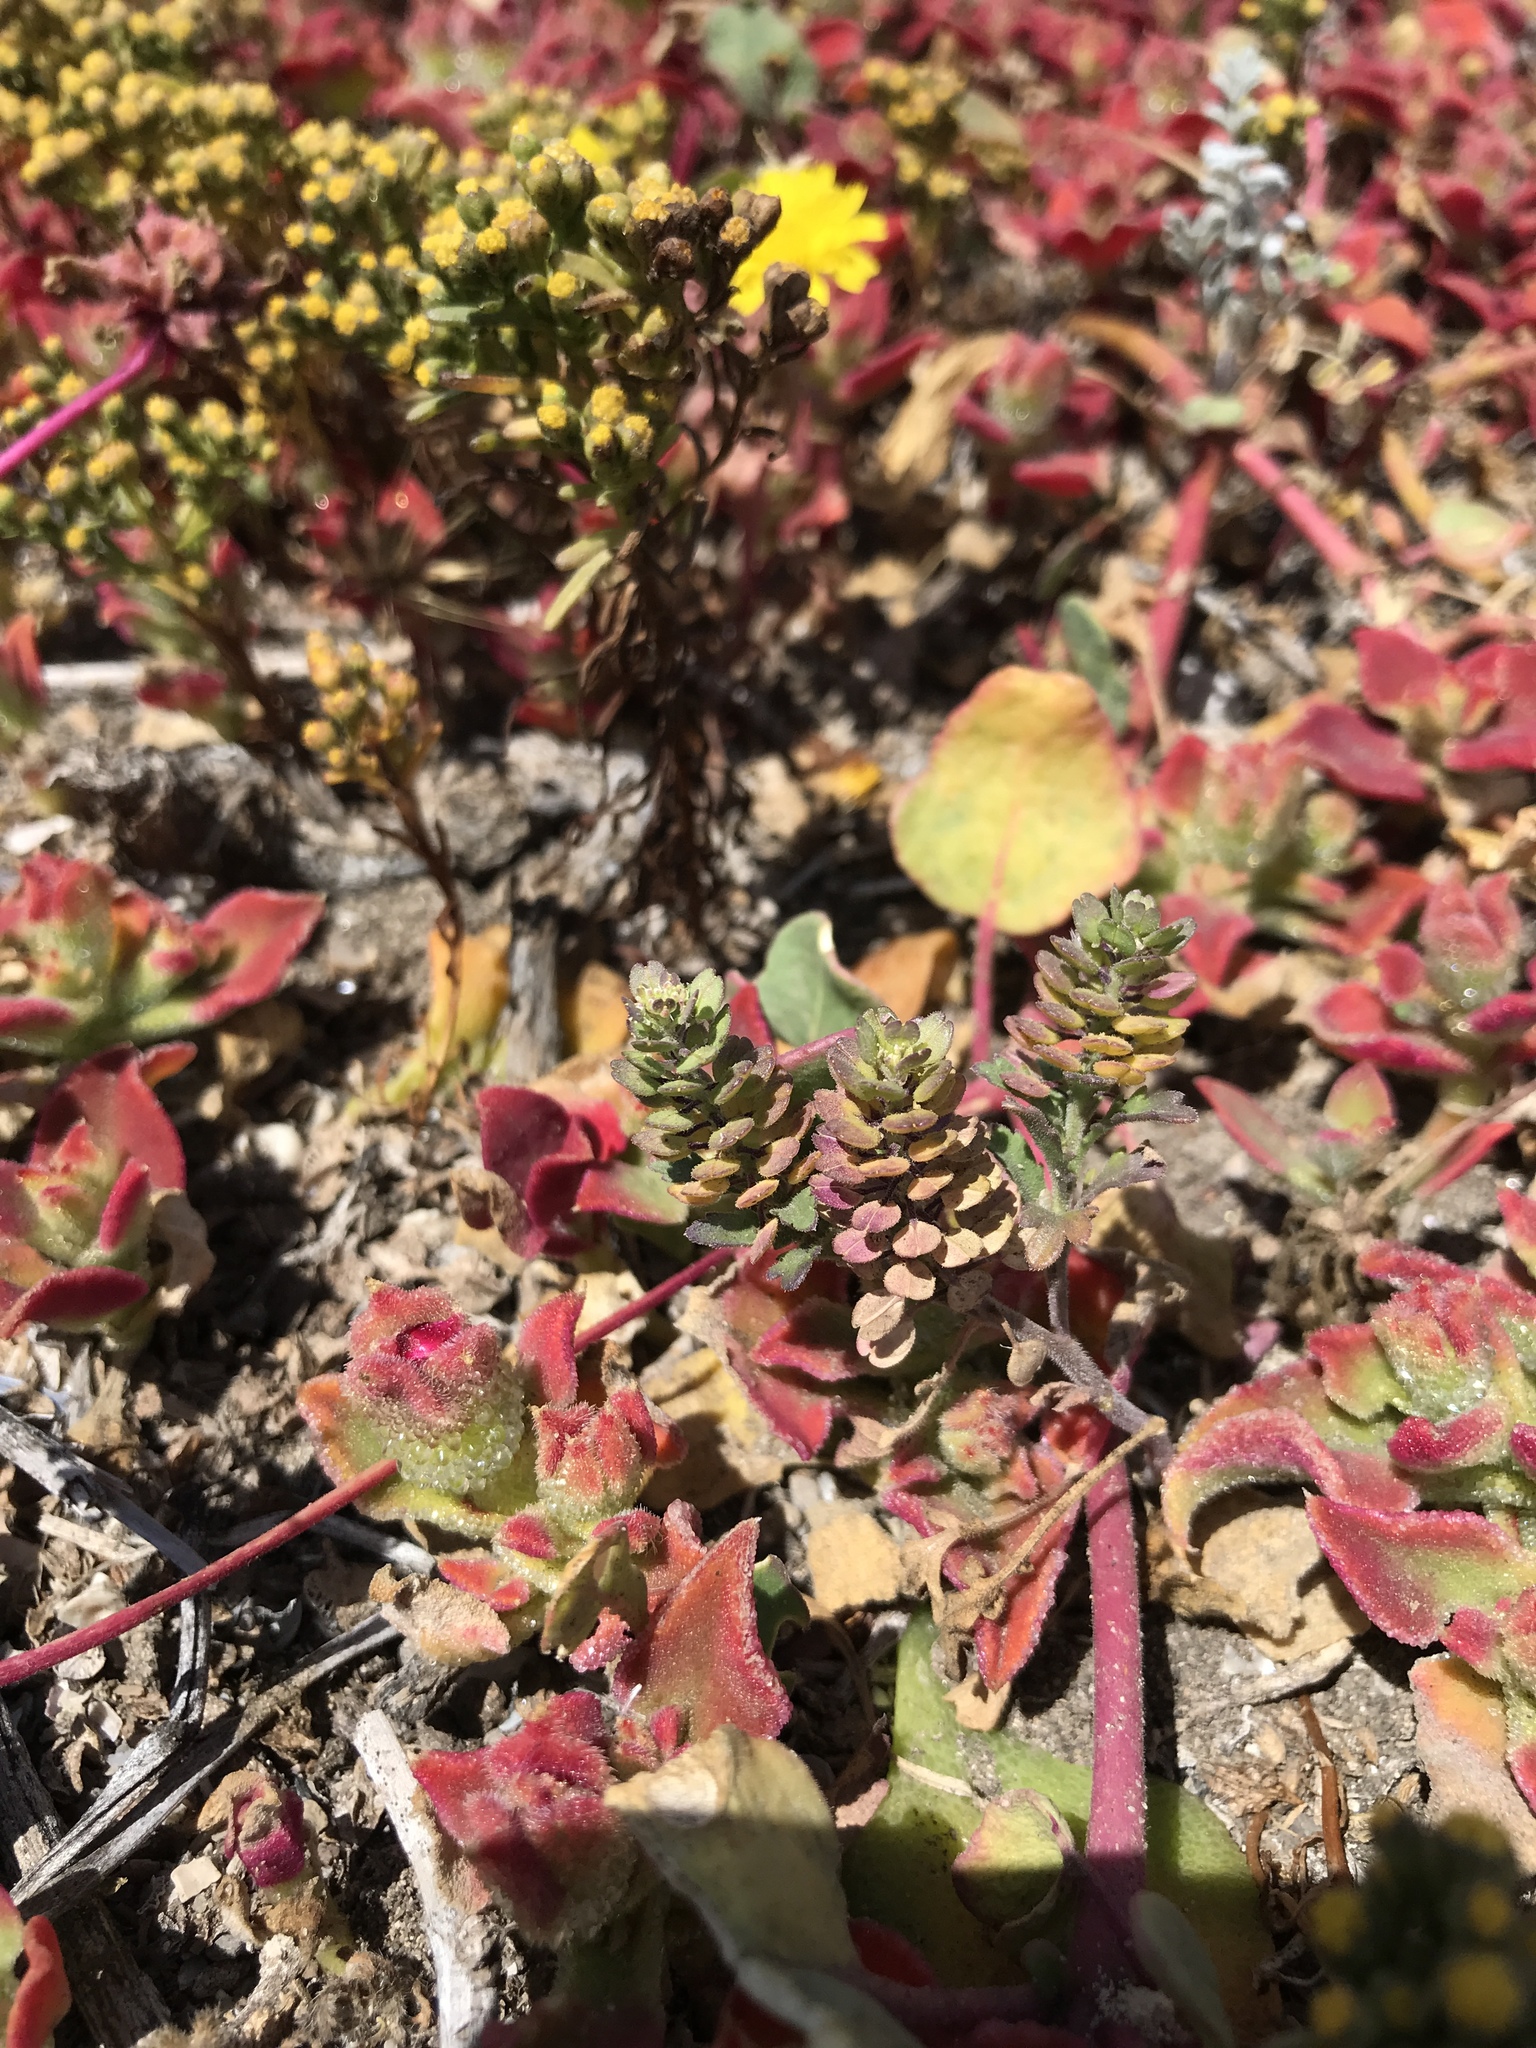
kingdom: Plantae
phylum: Tracheophyta
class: Magnoliopsida
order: Brassicales
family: Brassicaceae
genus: Lepidium
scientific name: Lepidium lasiocarpum
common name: Hairy-pod pepperwort
